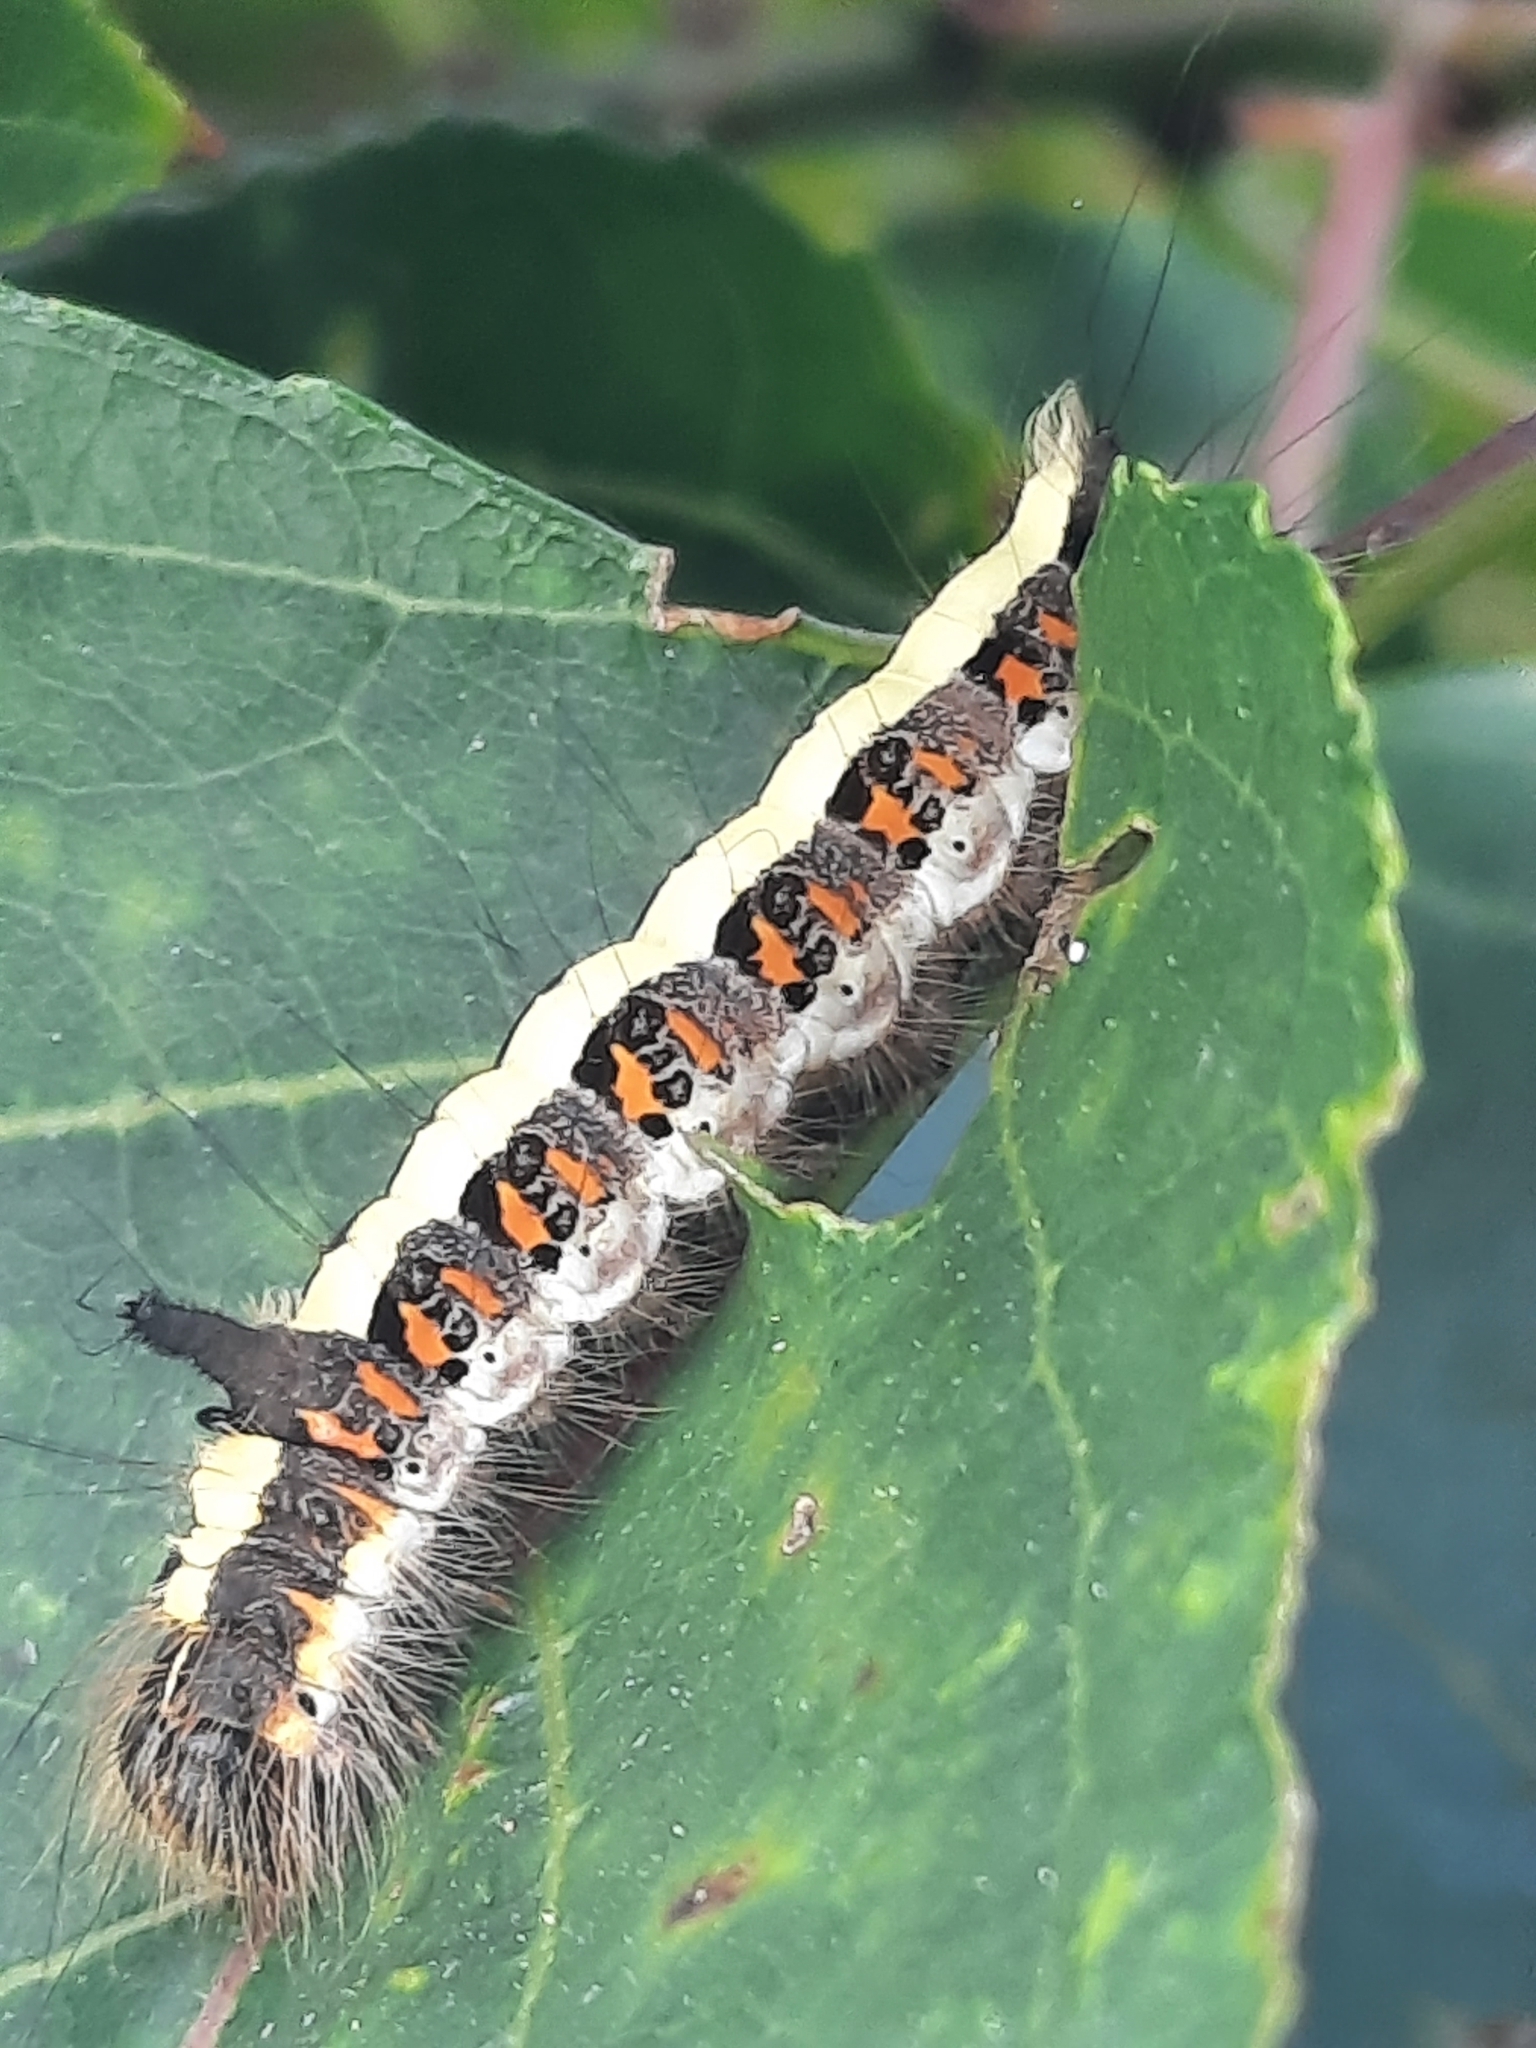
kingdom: Animalia
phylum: Arthropoda
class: Insecta
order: Lepidoptera
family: Noctuidae
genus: Acronicta
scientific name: Acronicta psi
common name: Grey dagger
